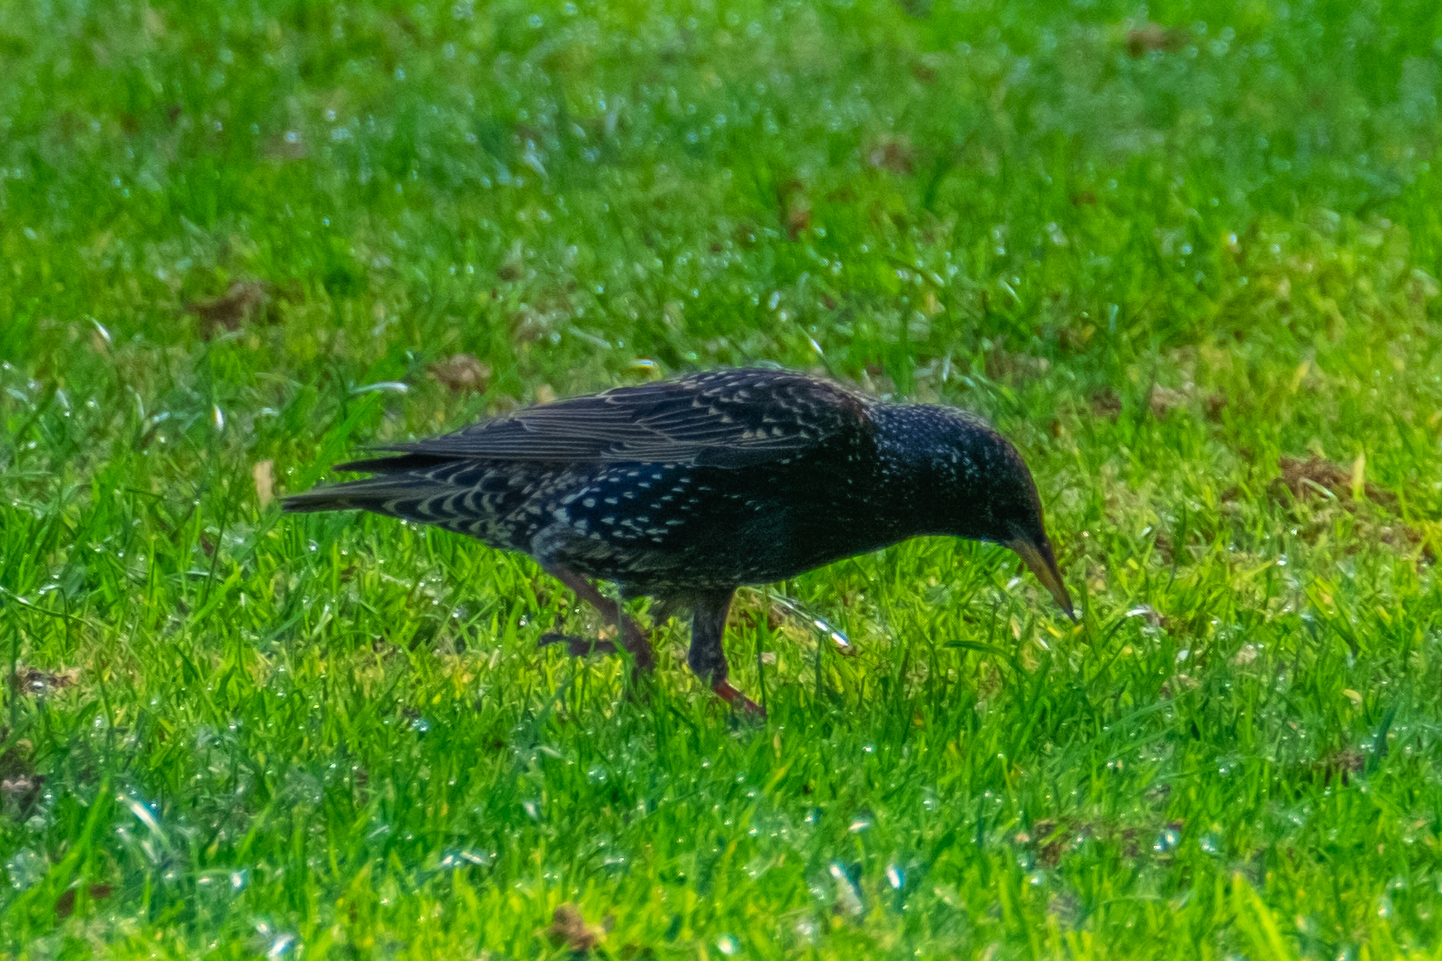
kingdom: Animalia
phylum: Chordata
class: Aves
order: Passeriformes
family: Sturnidae
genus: Sturnus
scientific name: Sturnus vulgaris
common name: Common starling
